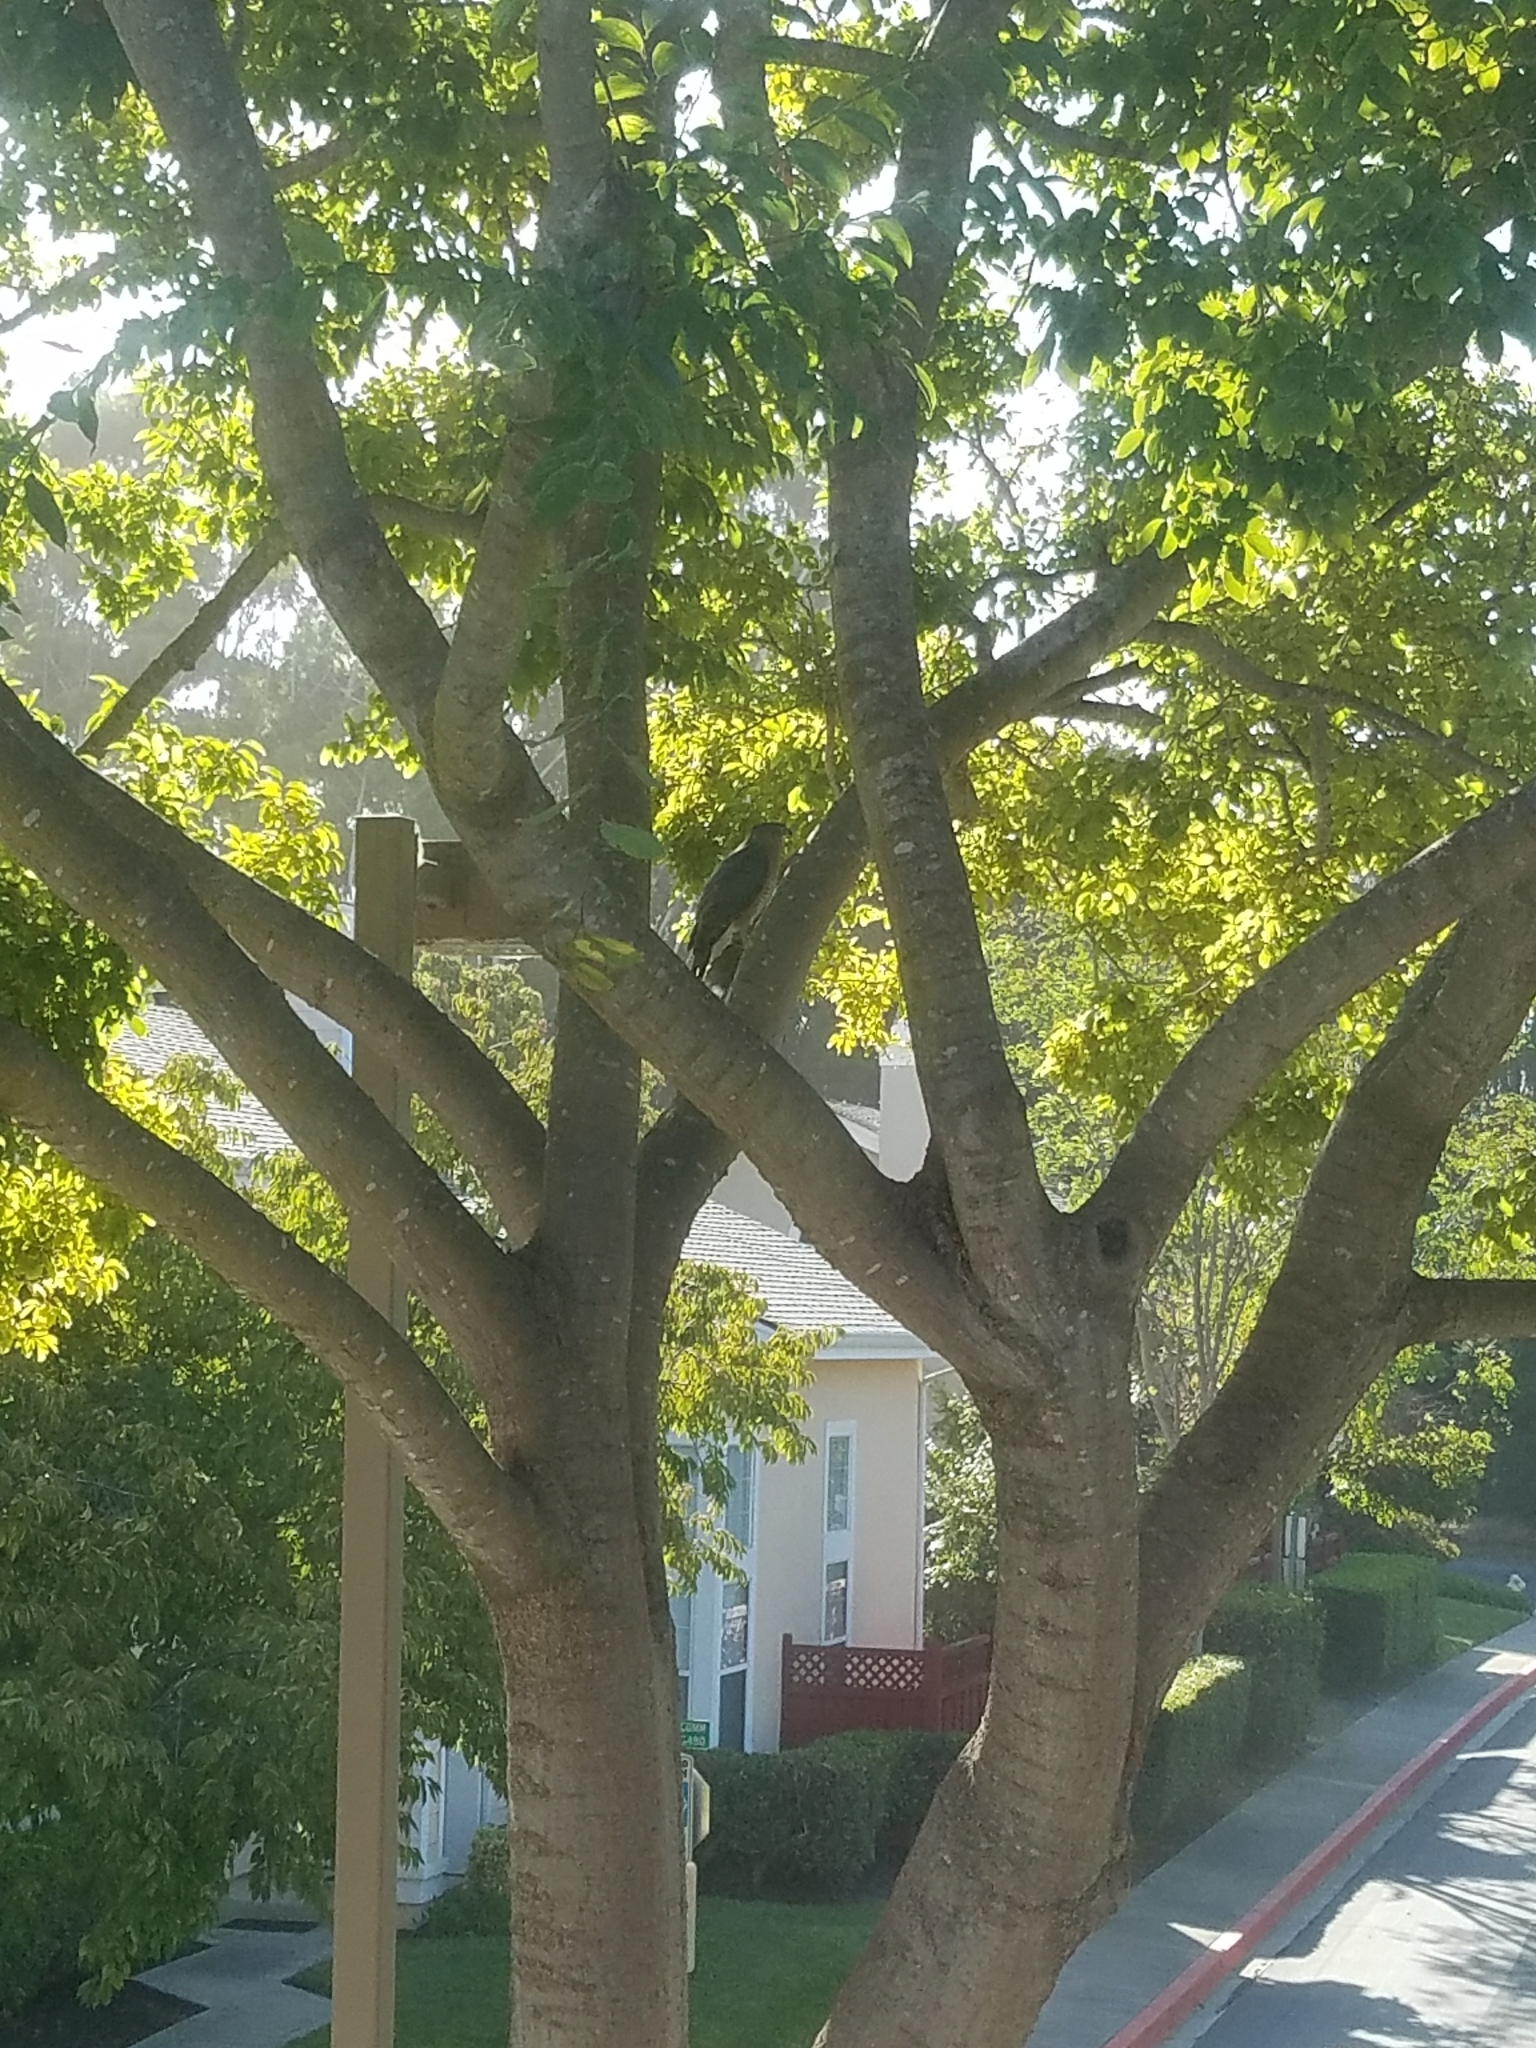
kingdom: Animalia
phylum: Chordata
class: Aves
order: Accipitriformes
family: Accipitridae
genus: Accipiter
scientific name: Accipiter cooperii
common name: Cooper's hawk
